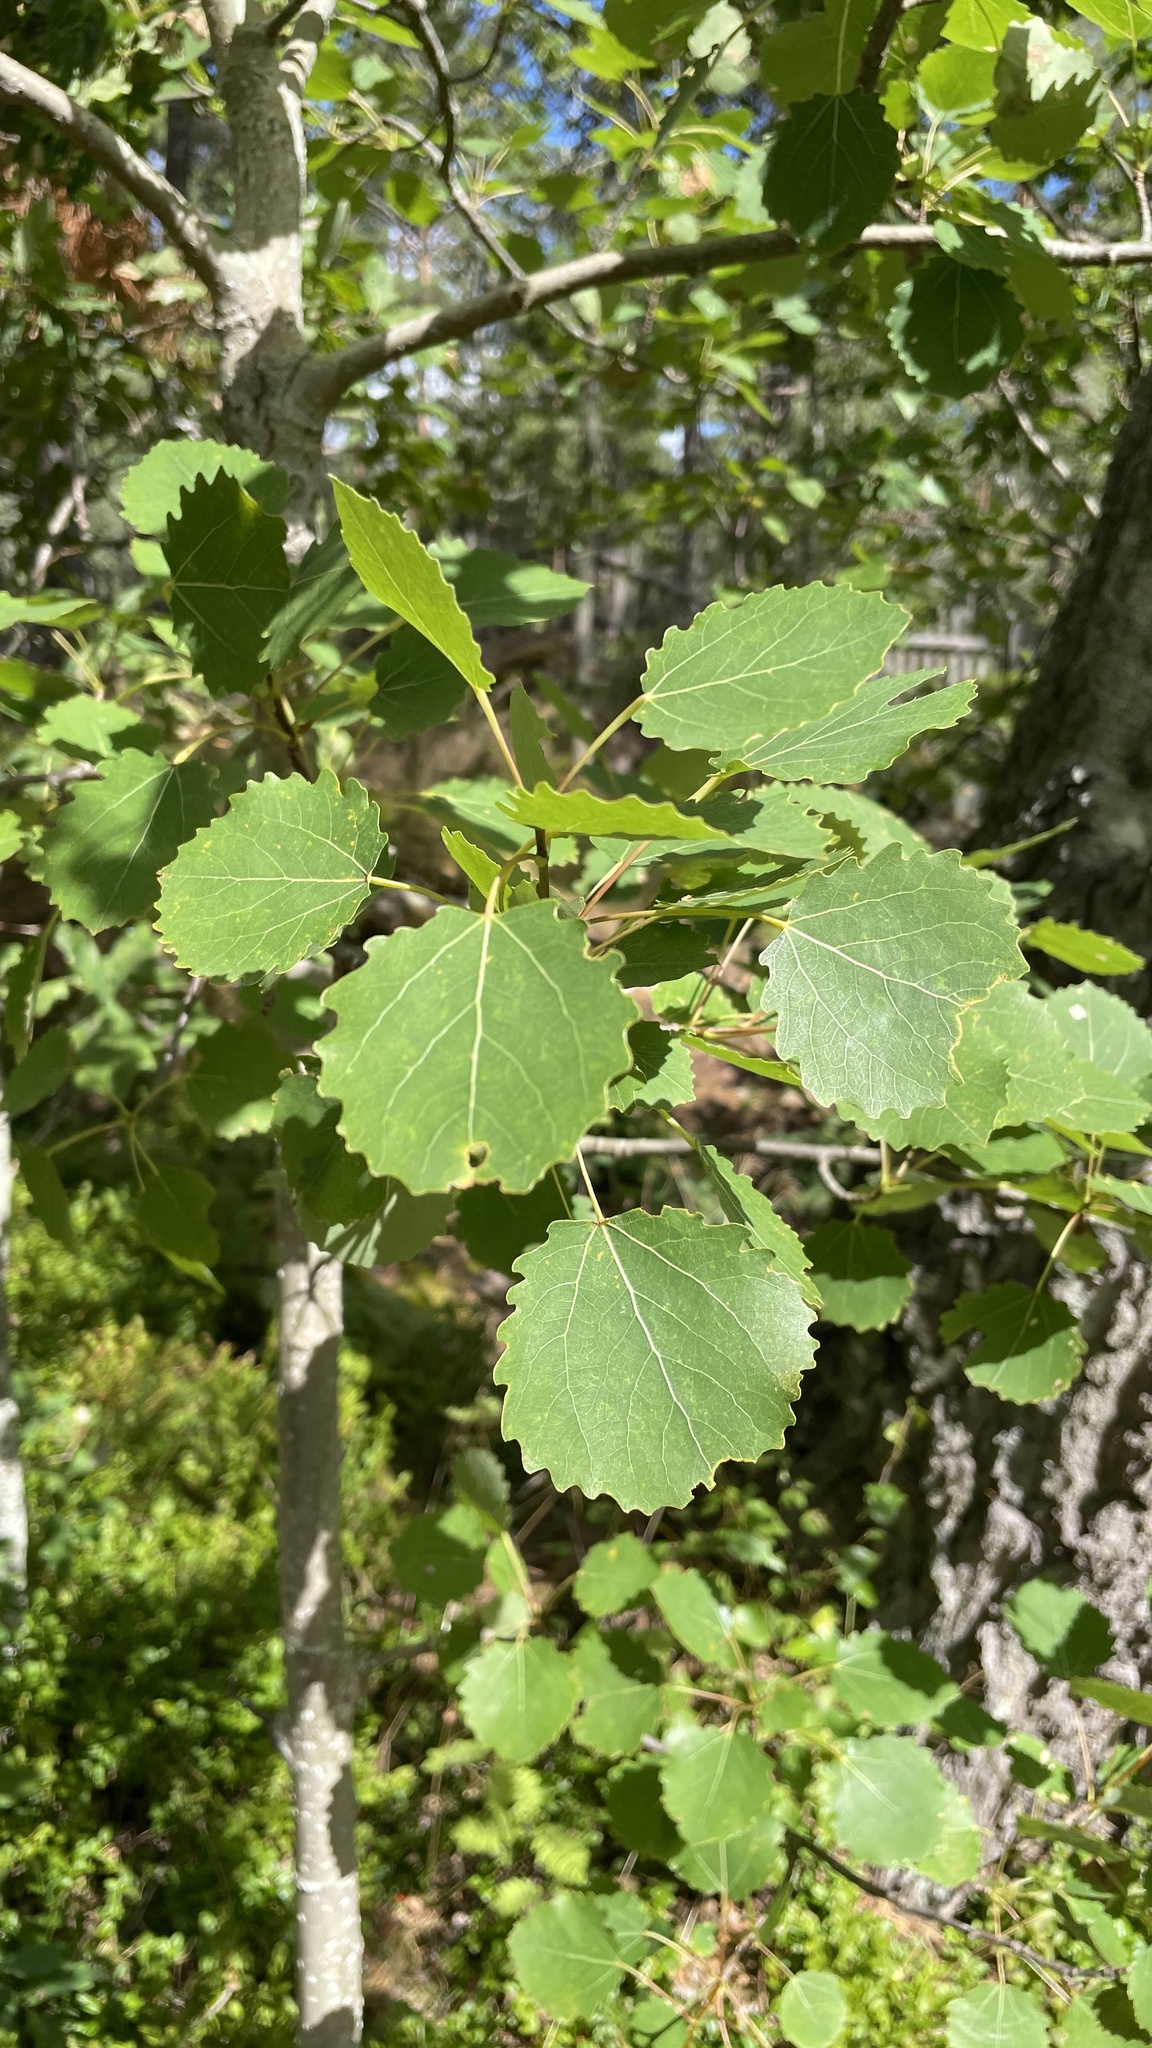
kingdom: Plantae
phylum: Tracheophyta
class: Magnoliopsida
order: Malpighiales
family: Salicaceae
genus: Populus
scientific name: Populus tremula
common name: European aspen
